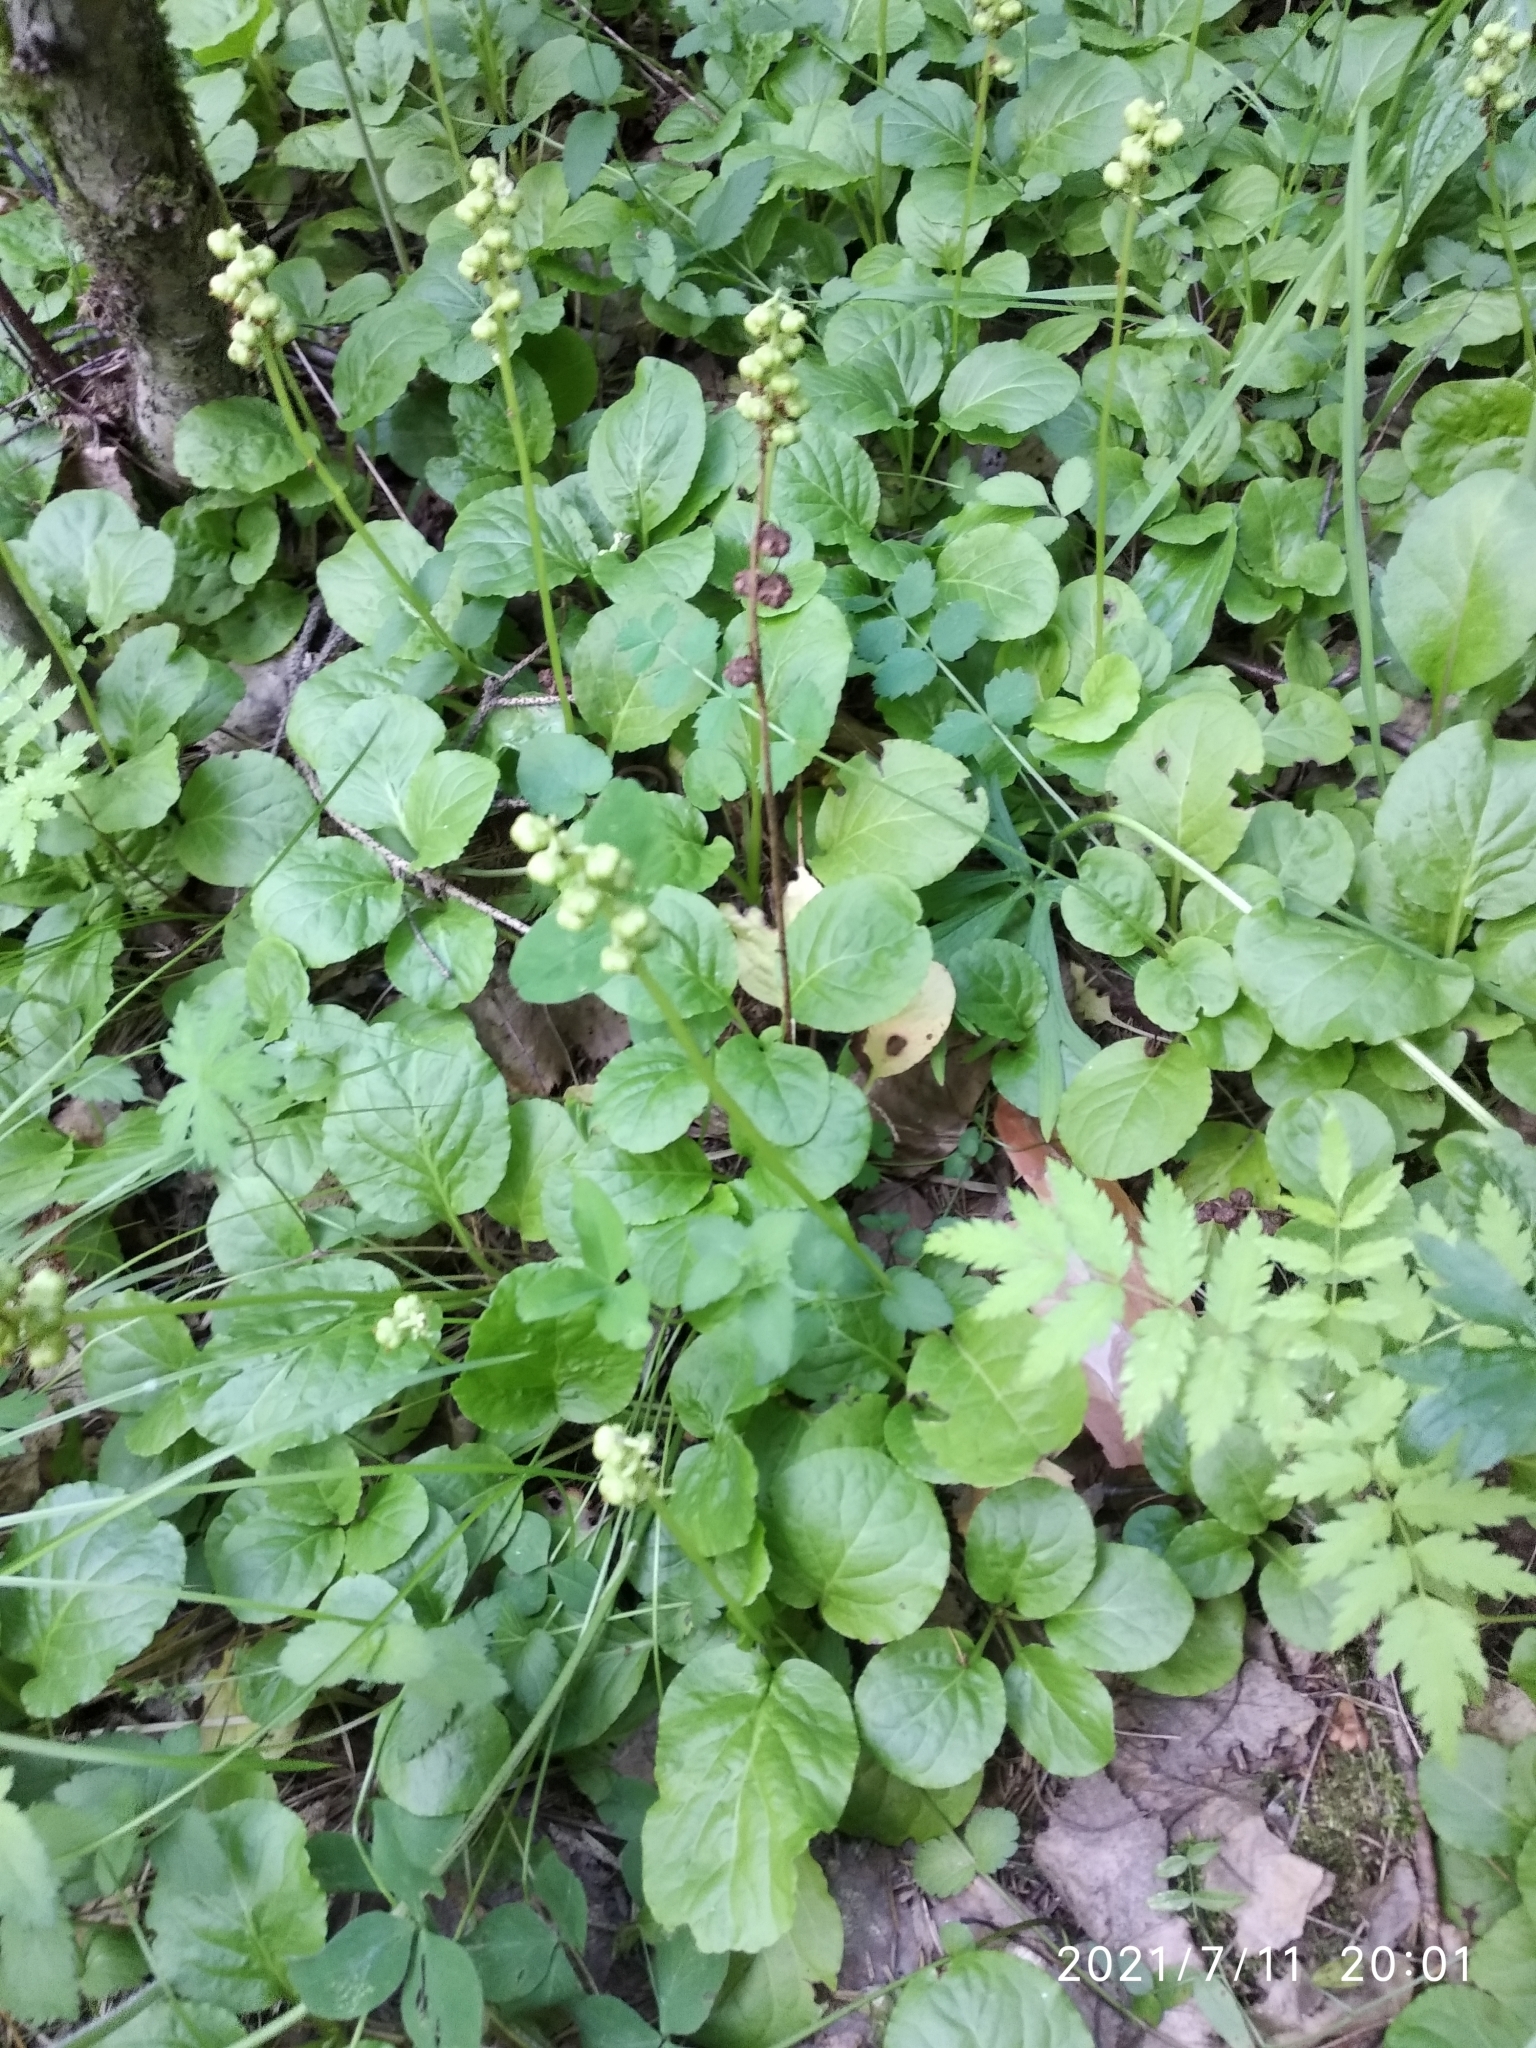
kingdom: Plantae
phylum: Tracheophyta
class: Magnoliopsida
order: Ericales
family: Ericaceae
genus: Pyrola
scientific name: Pyrola minor
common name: Common wintergreen
